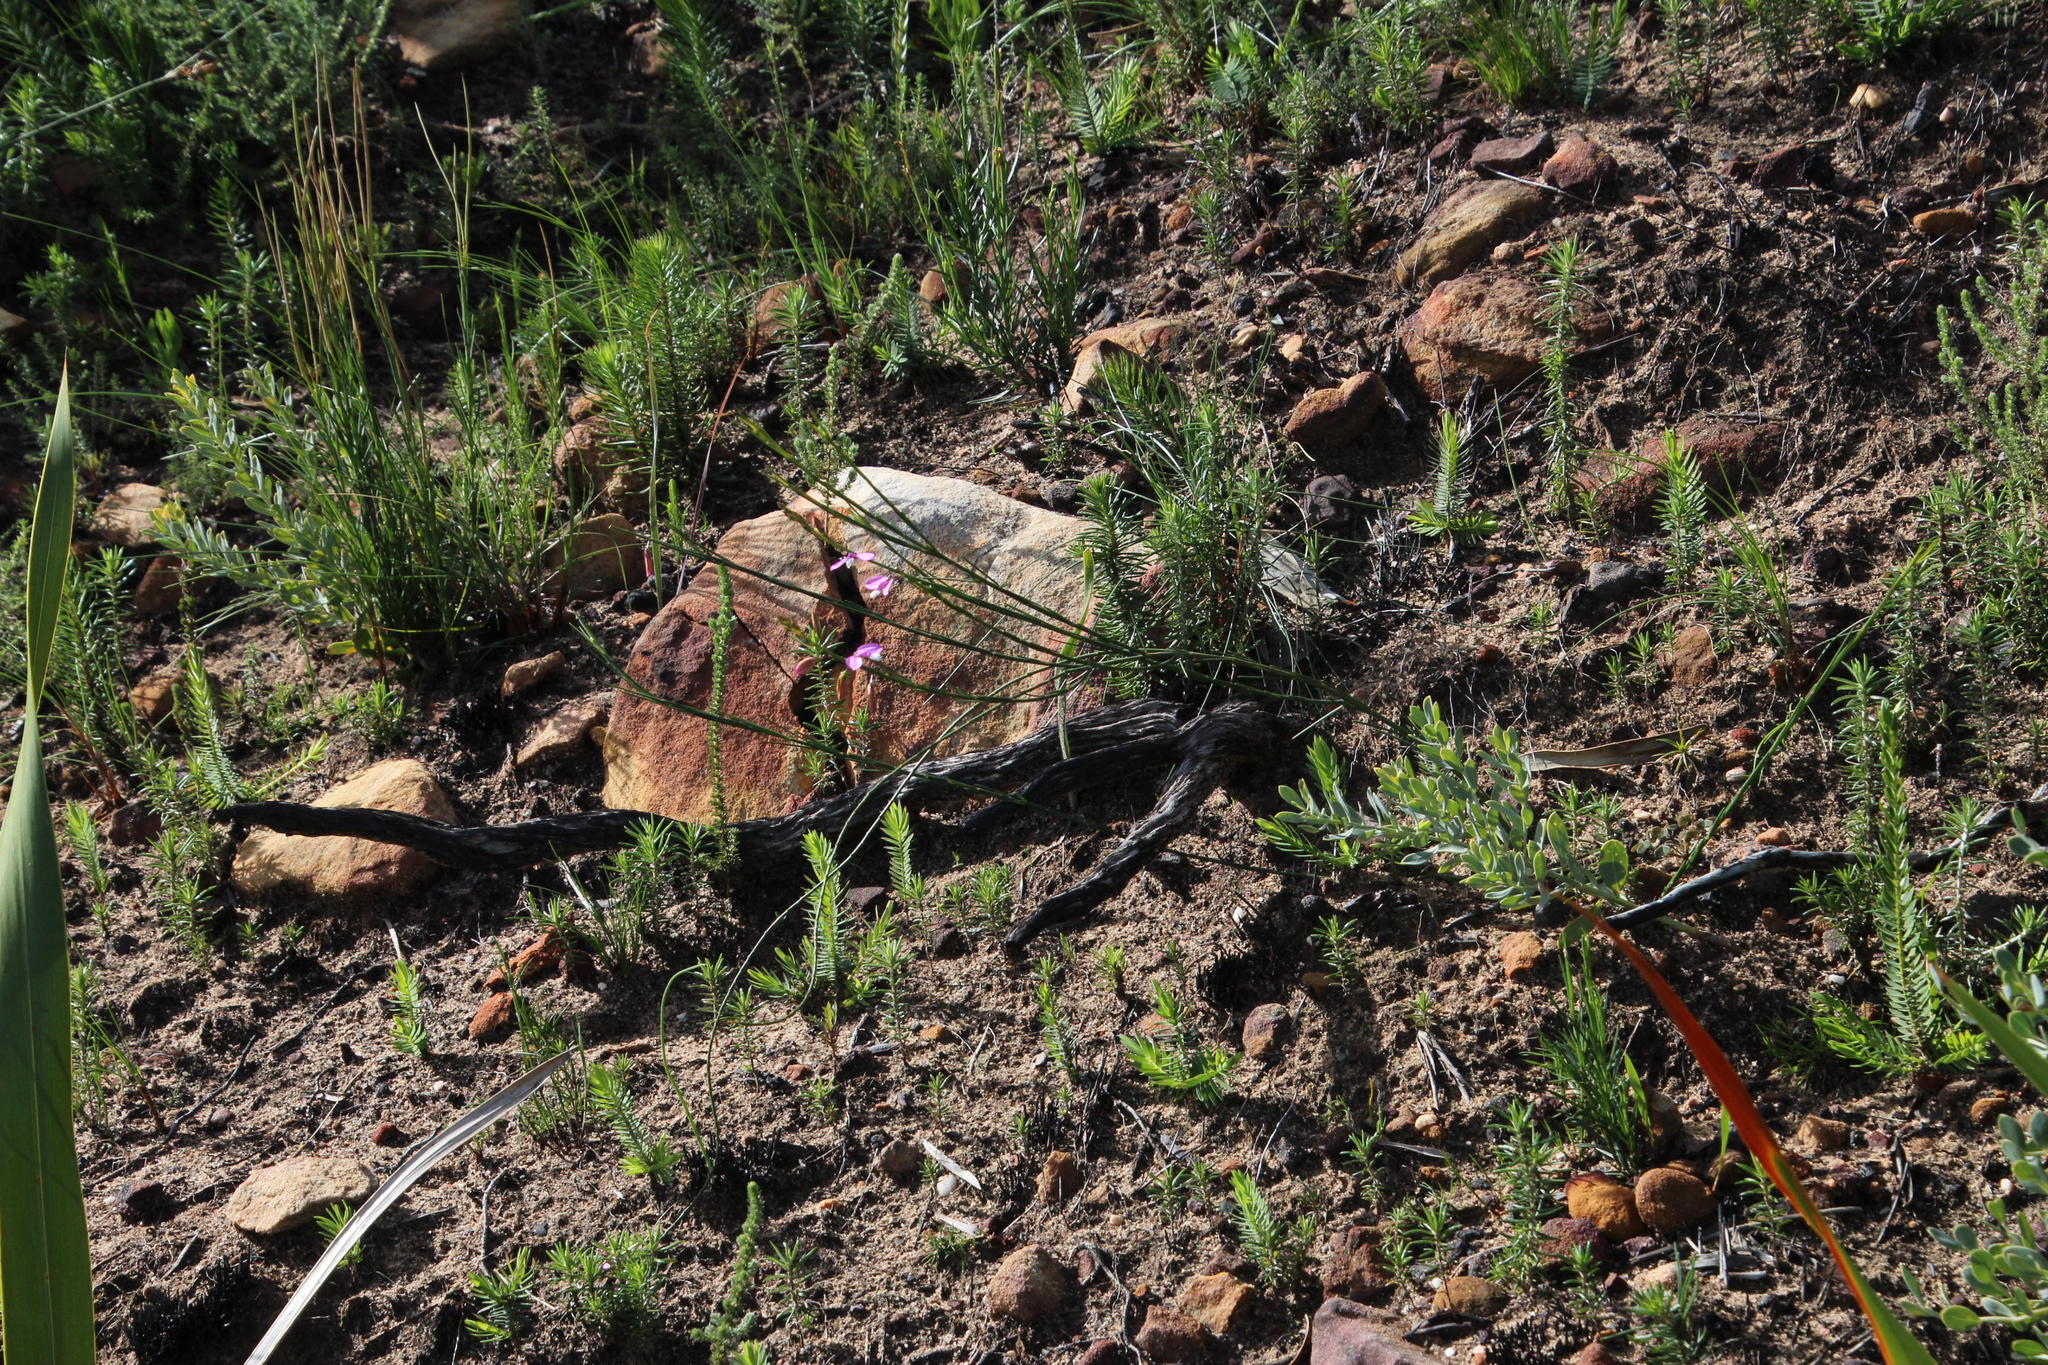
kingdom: Plantae
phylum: Tracheophyta
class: Magnoliopsida
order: Fabales
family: Polygalaceae
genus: Polygala
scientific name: Polygala garcini
